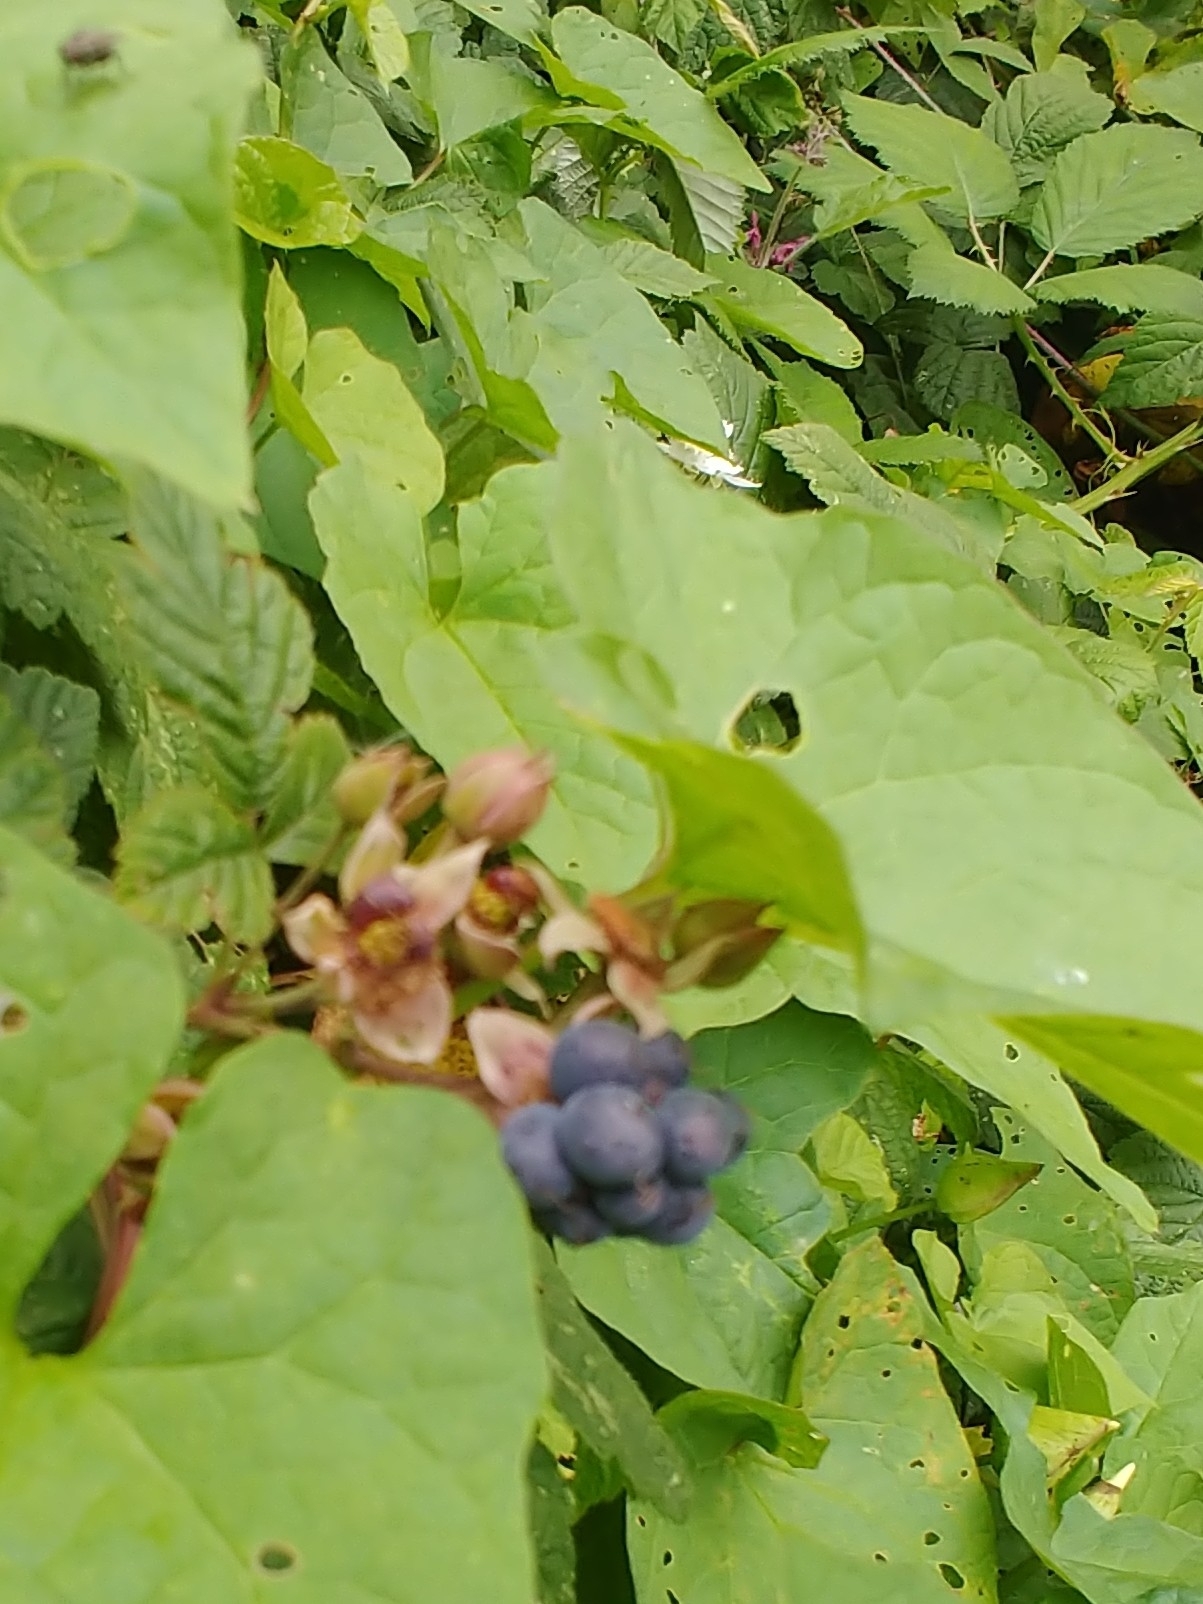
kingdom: Plantae
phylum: Tracheophyta
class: Magnoliopsida
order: Rosales
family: Rosaceae
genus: Rubus
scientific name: Rubus caesius
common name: Dewberry
